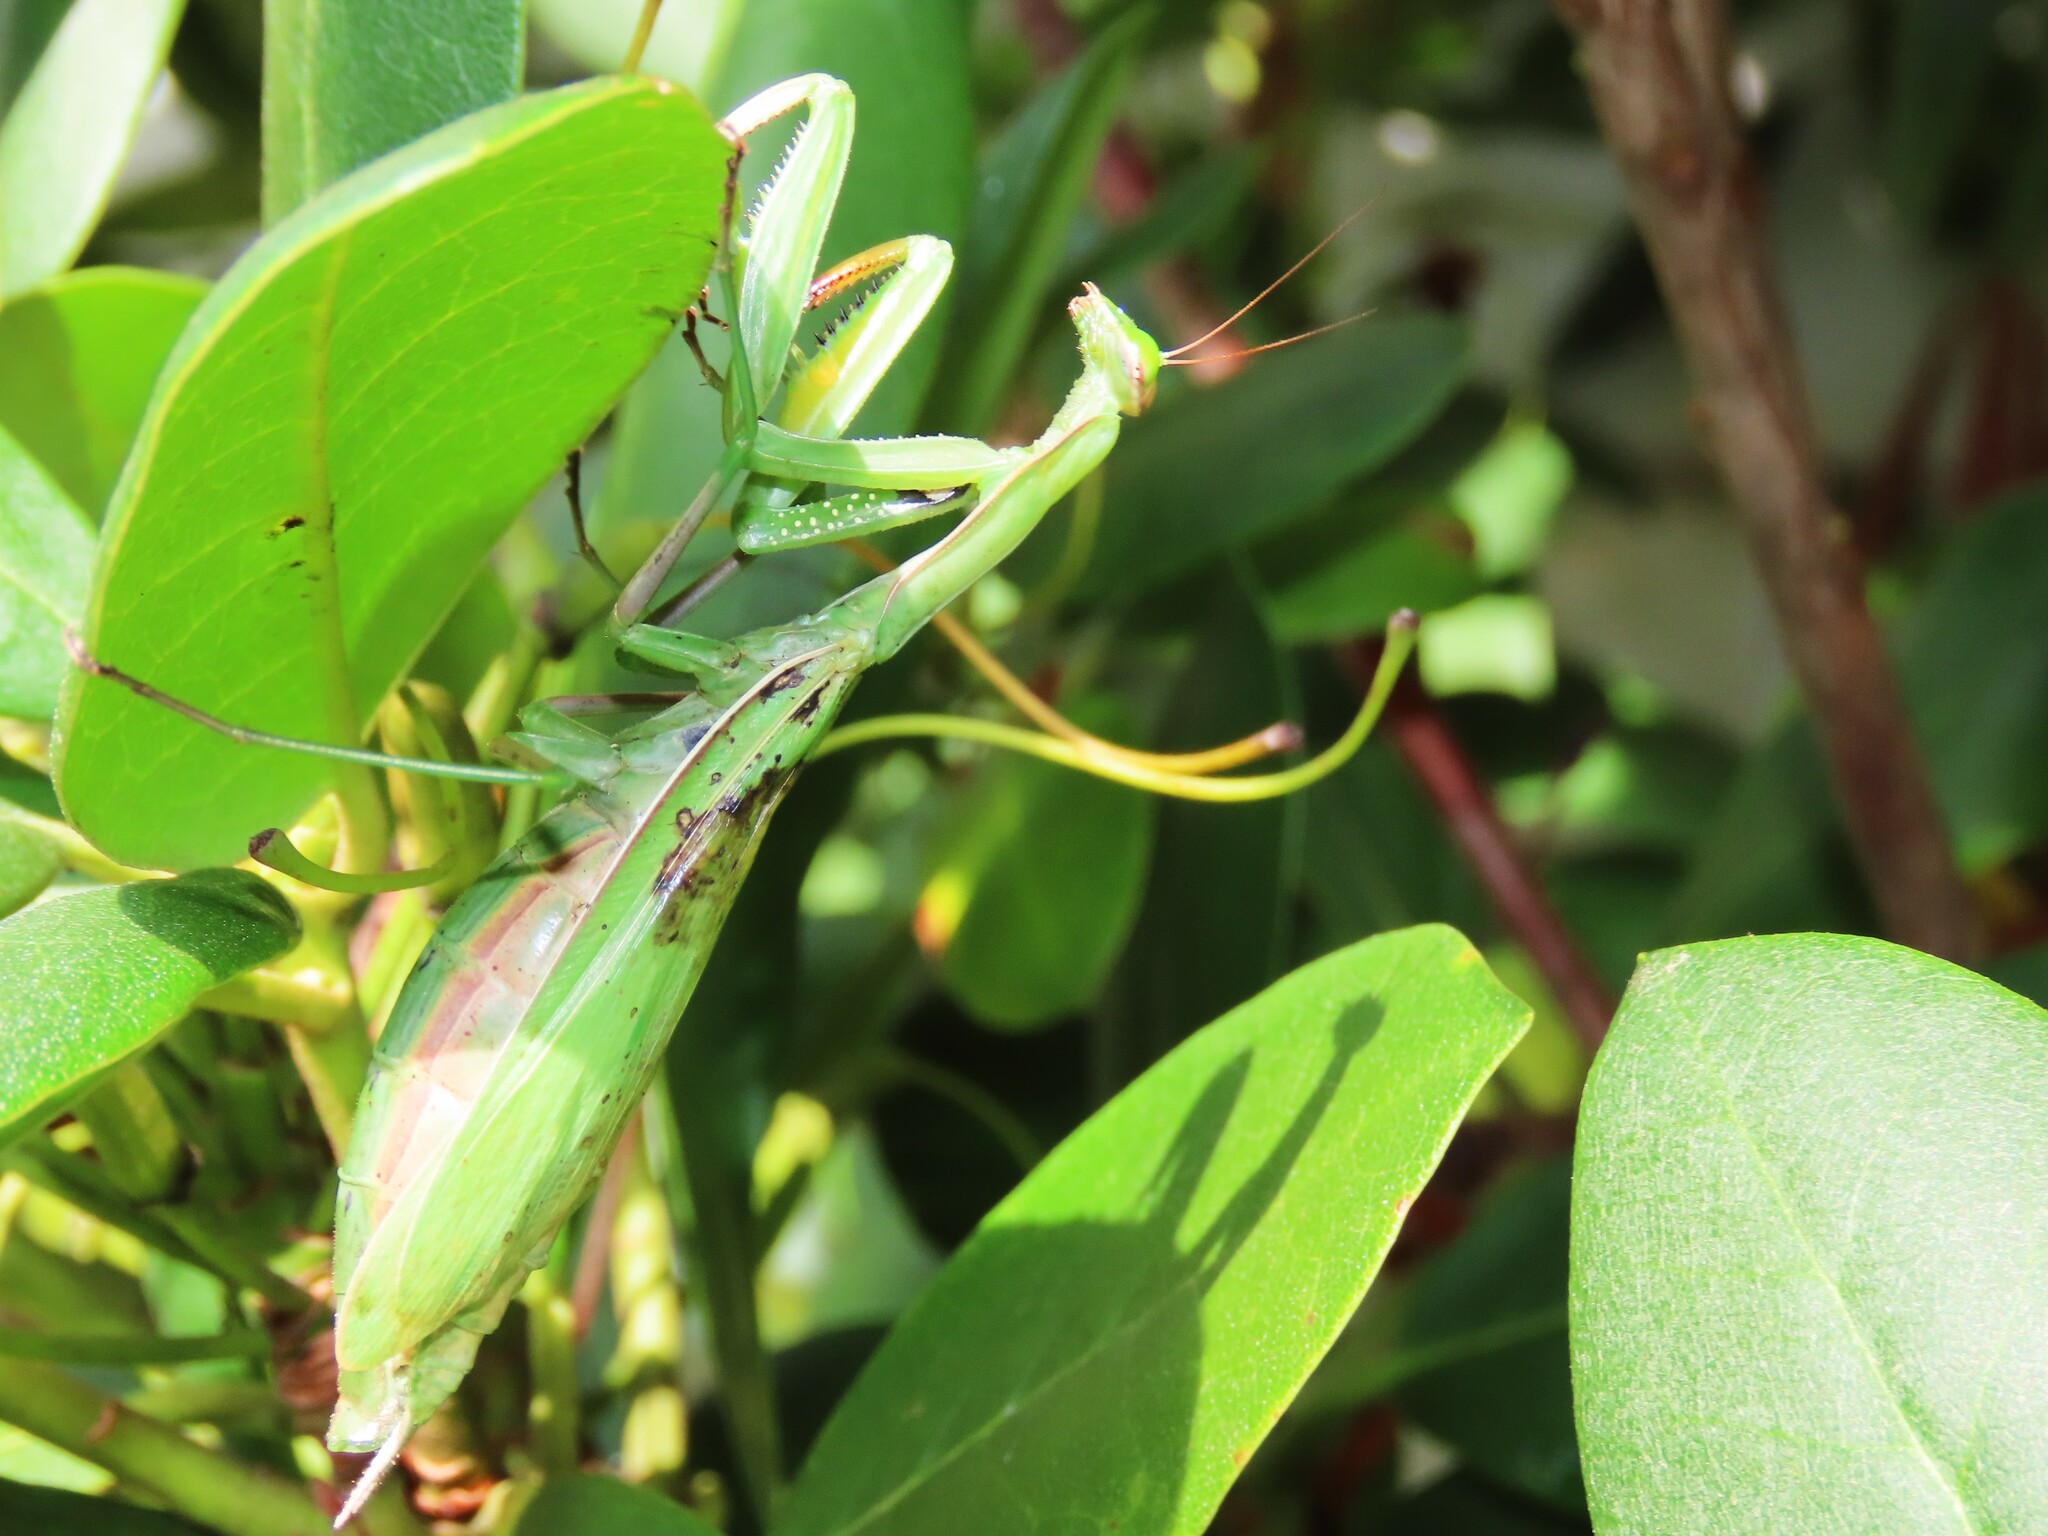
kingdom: Animalia
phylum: Arthropoda
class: Insecta
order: Mantodea
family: Mantidae
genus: Mantis
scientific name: Mantis religiosa
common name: Praying mantis
